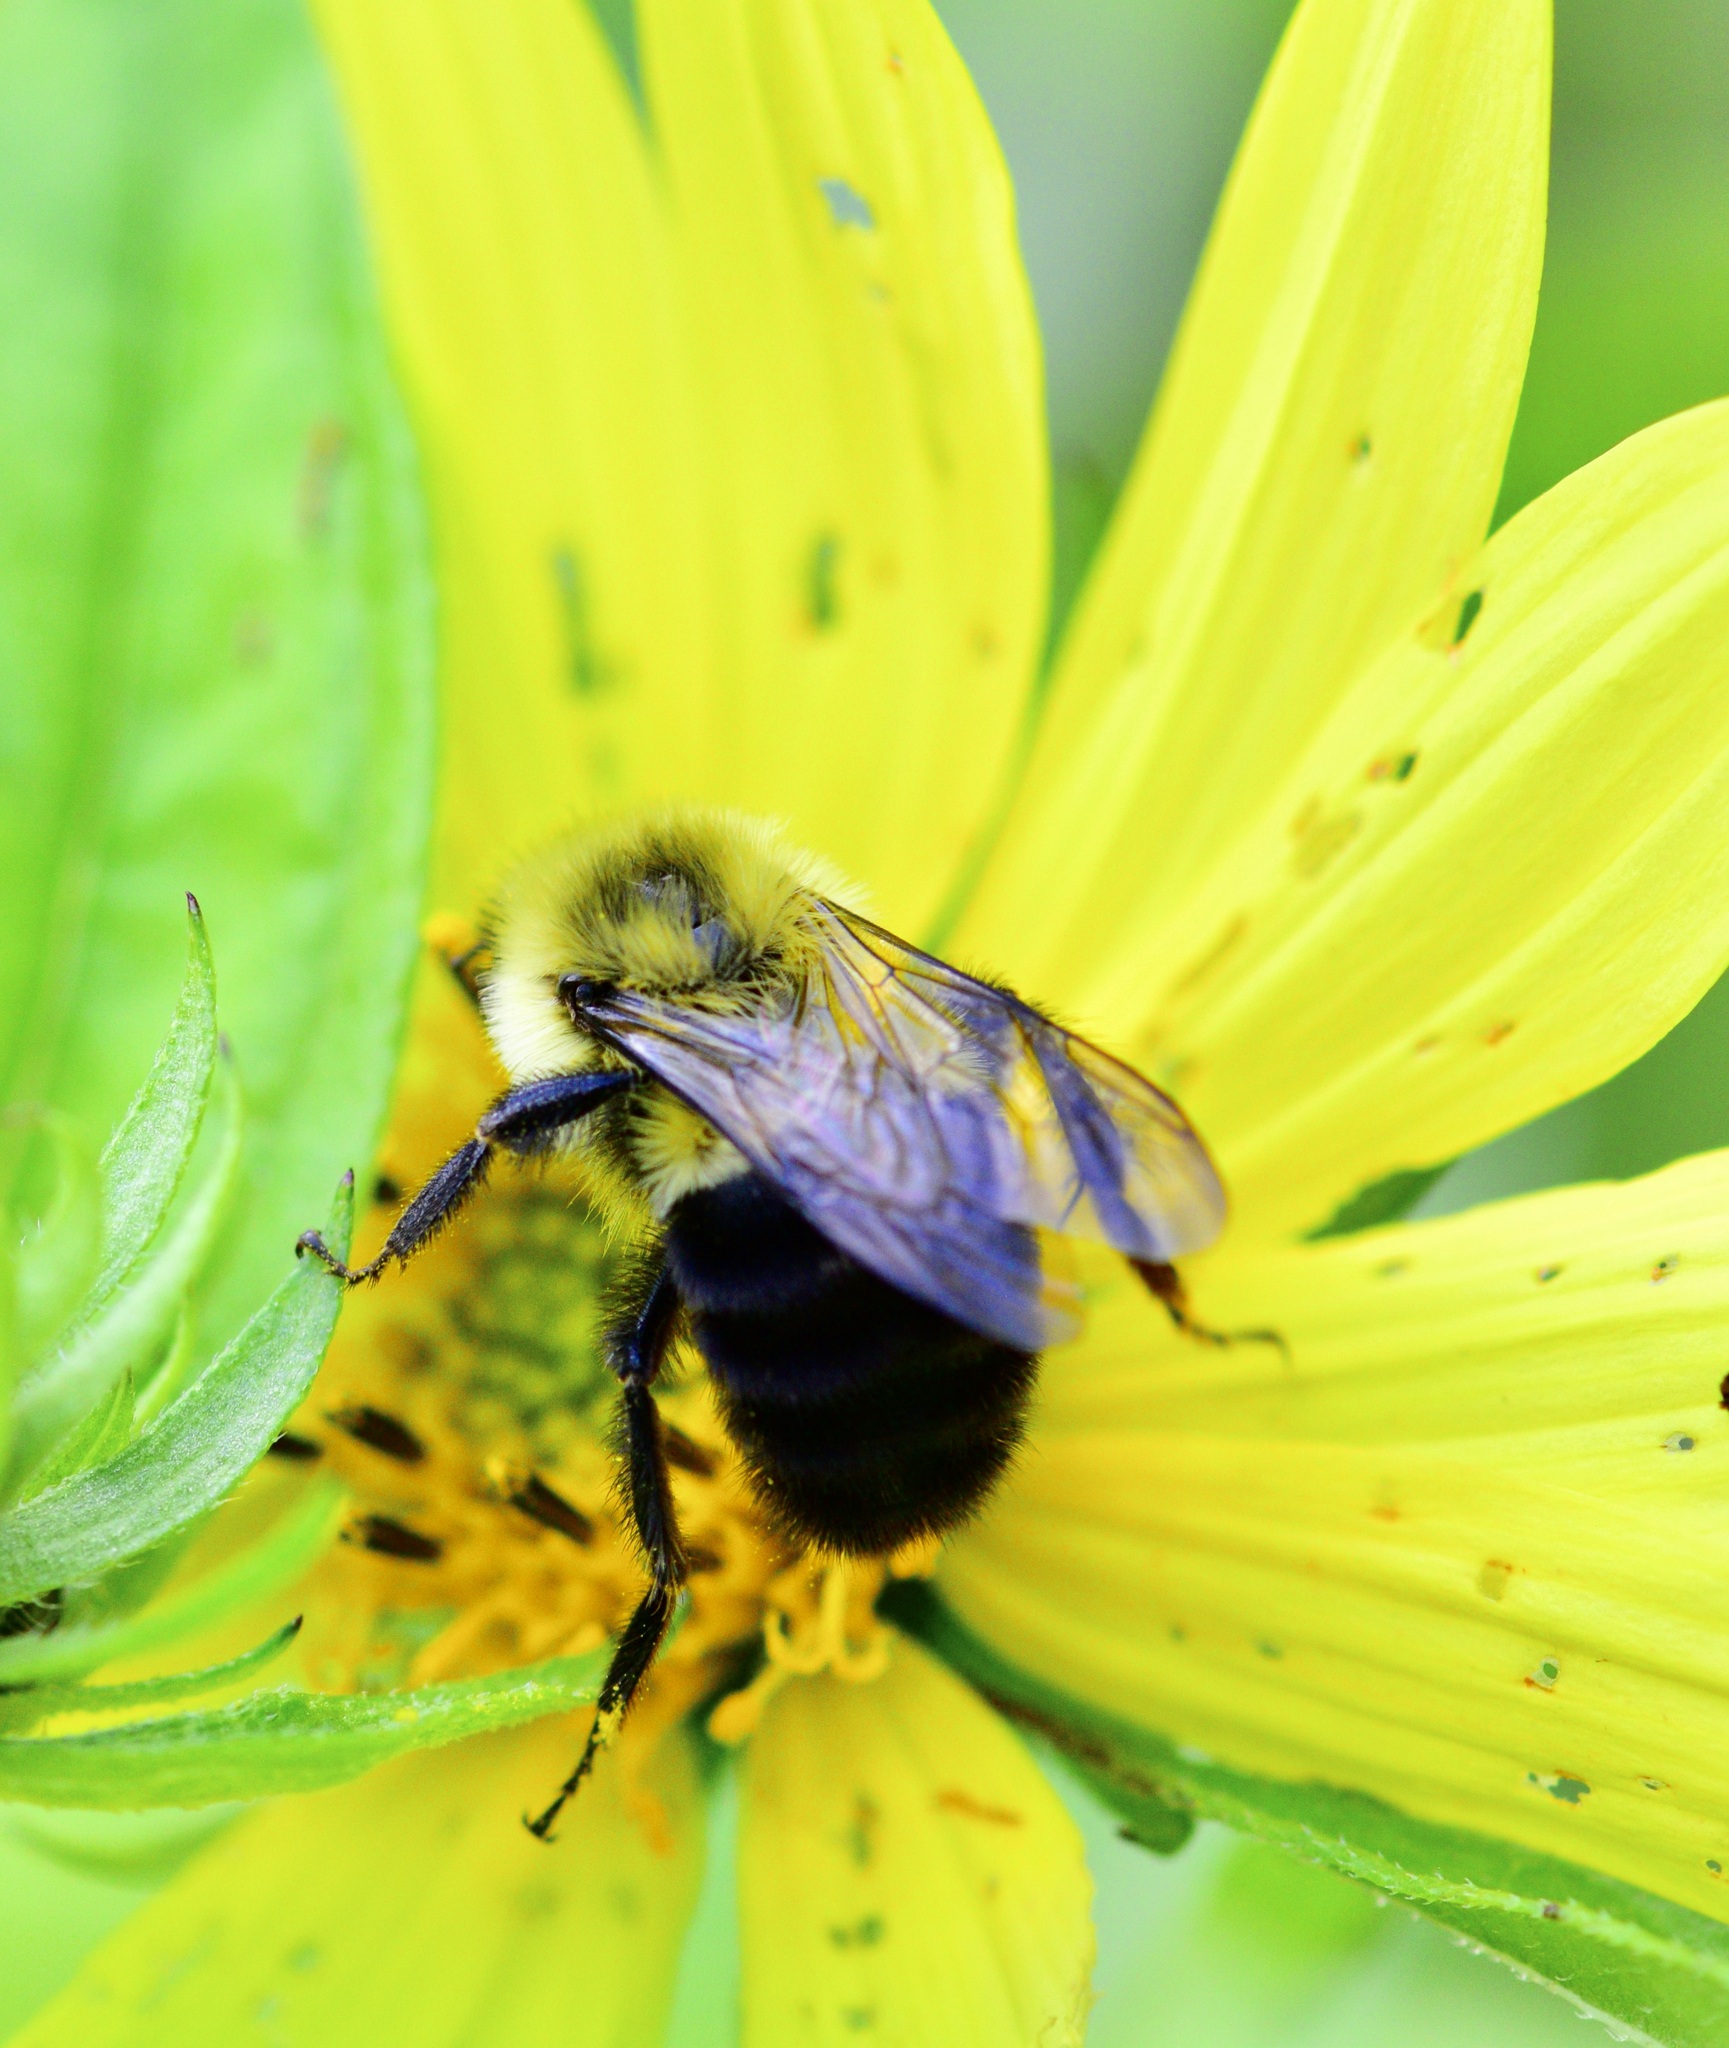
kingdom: Animalia
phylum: Arthropoda
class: Insecta
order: Hymenoptera
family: Apidae
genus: Bombus
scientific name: Bombus impatiens
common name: Common eastern bumble bee
